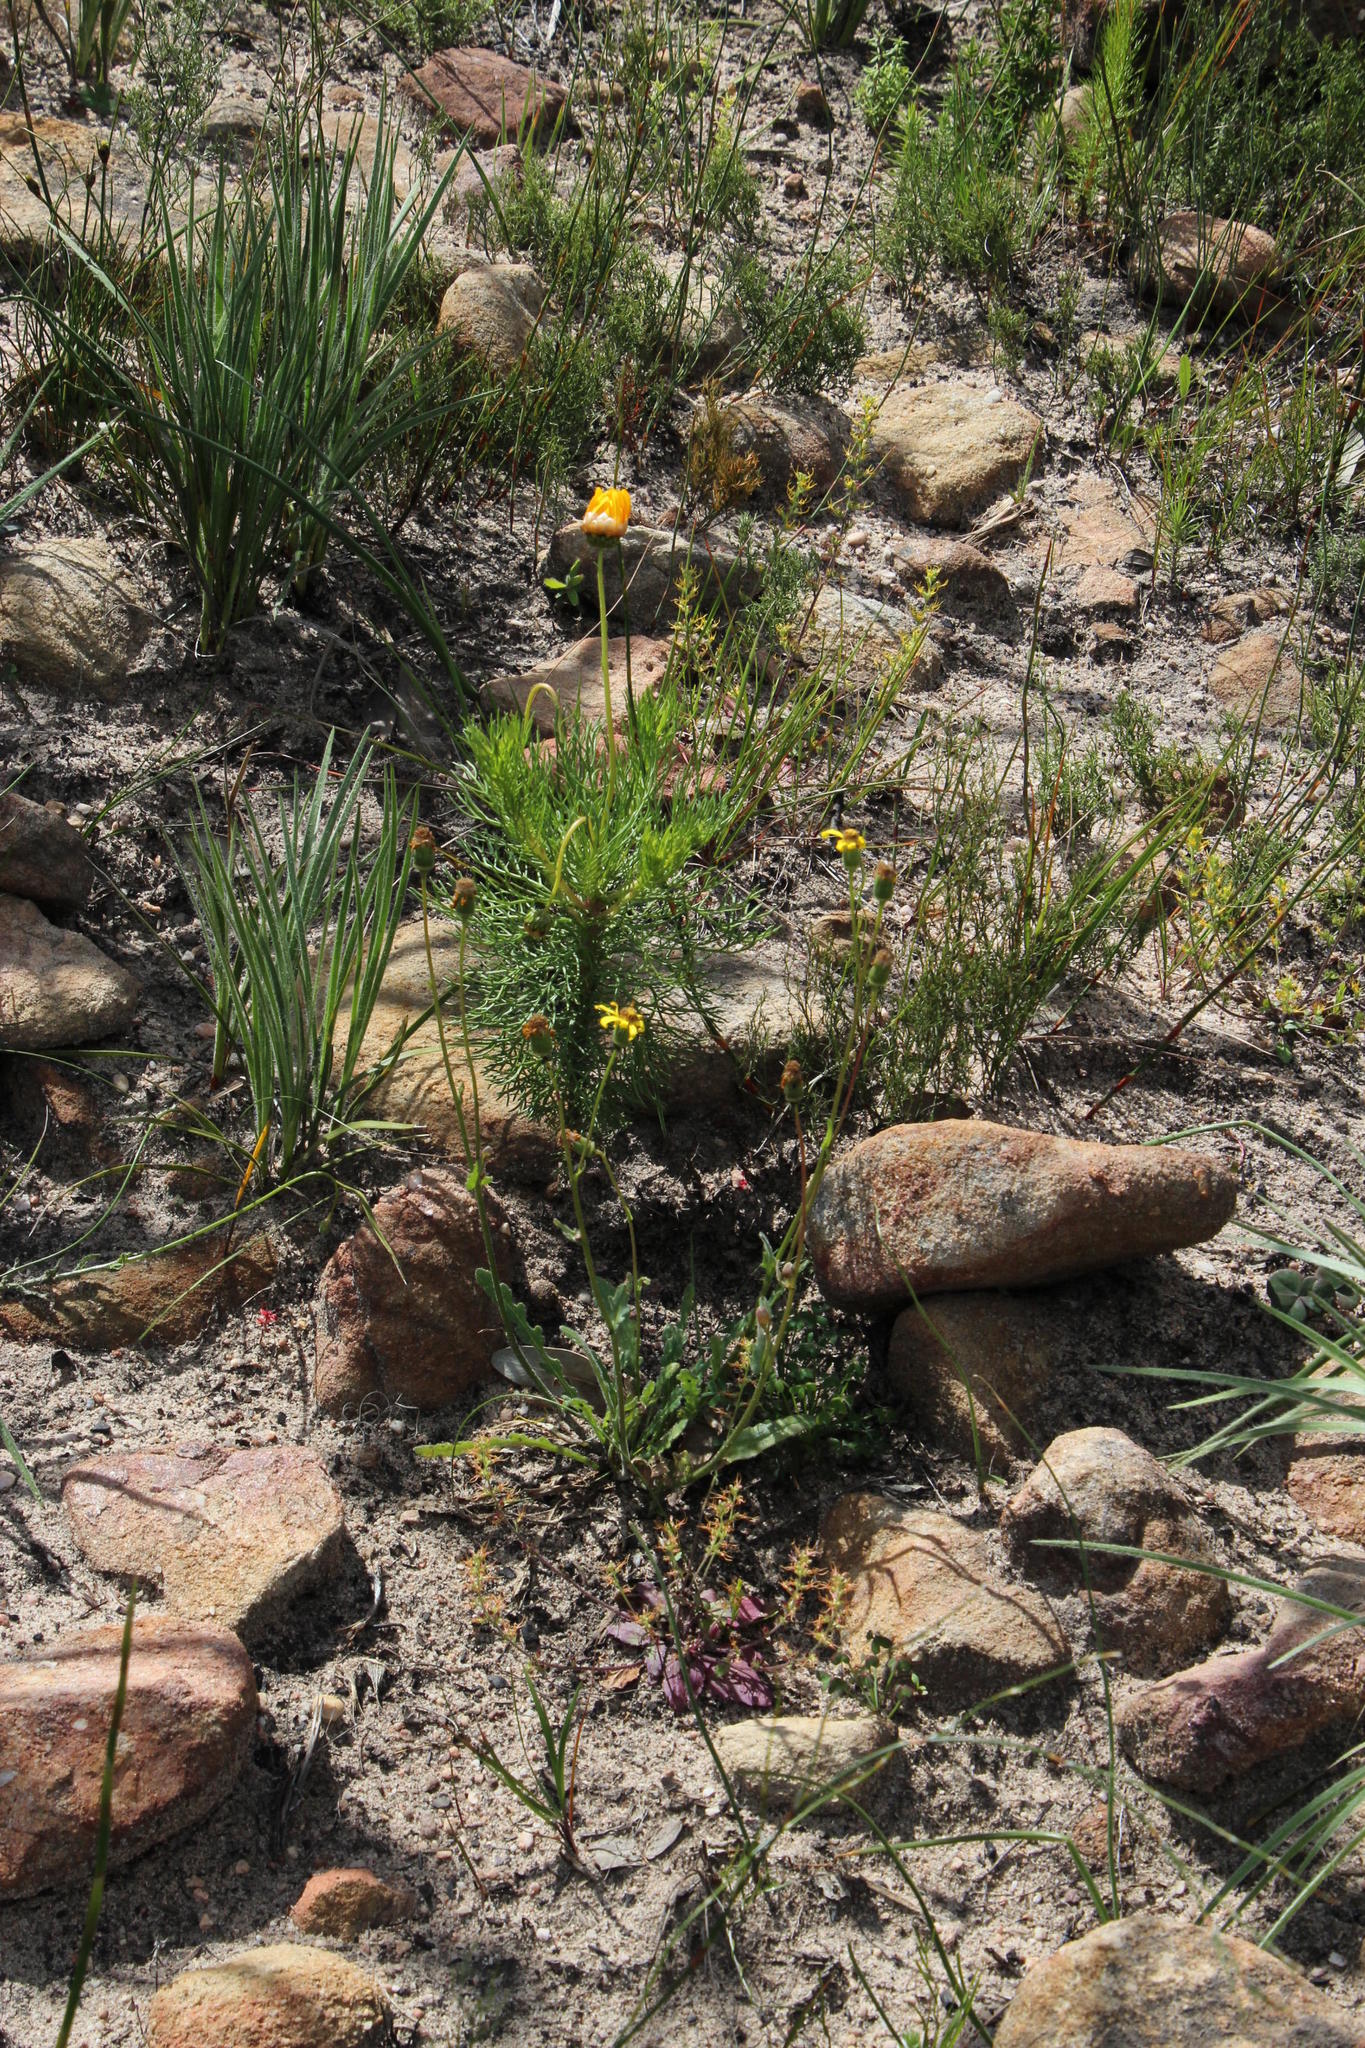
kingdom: Plantae
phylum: Tracheophyta
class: Magnoliopsida
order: Asterales
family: Asteraceae
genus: Bolandia
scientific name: Bolandia pedunculosa
